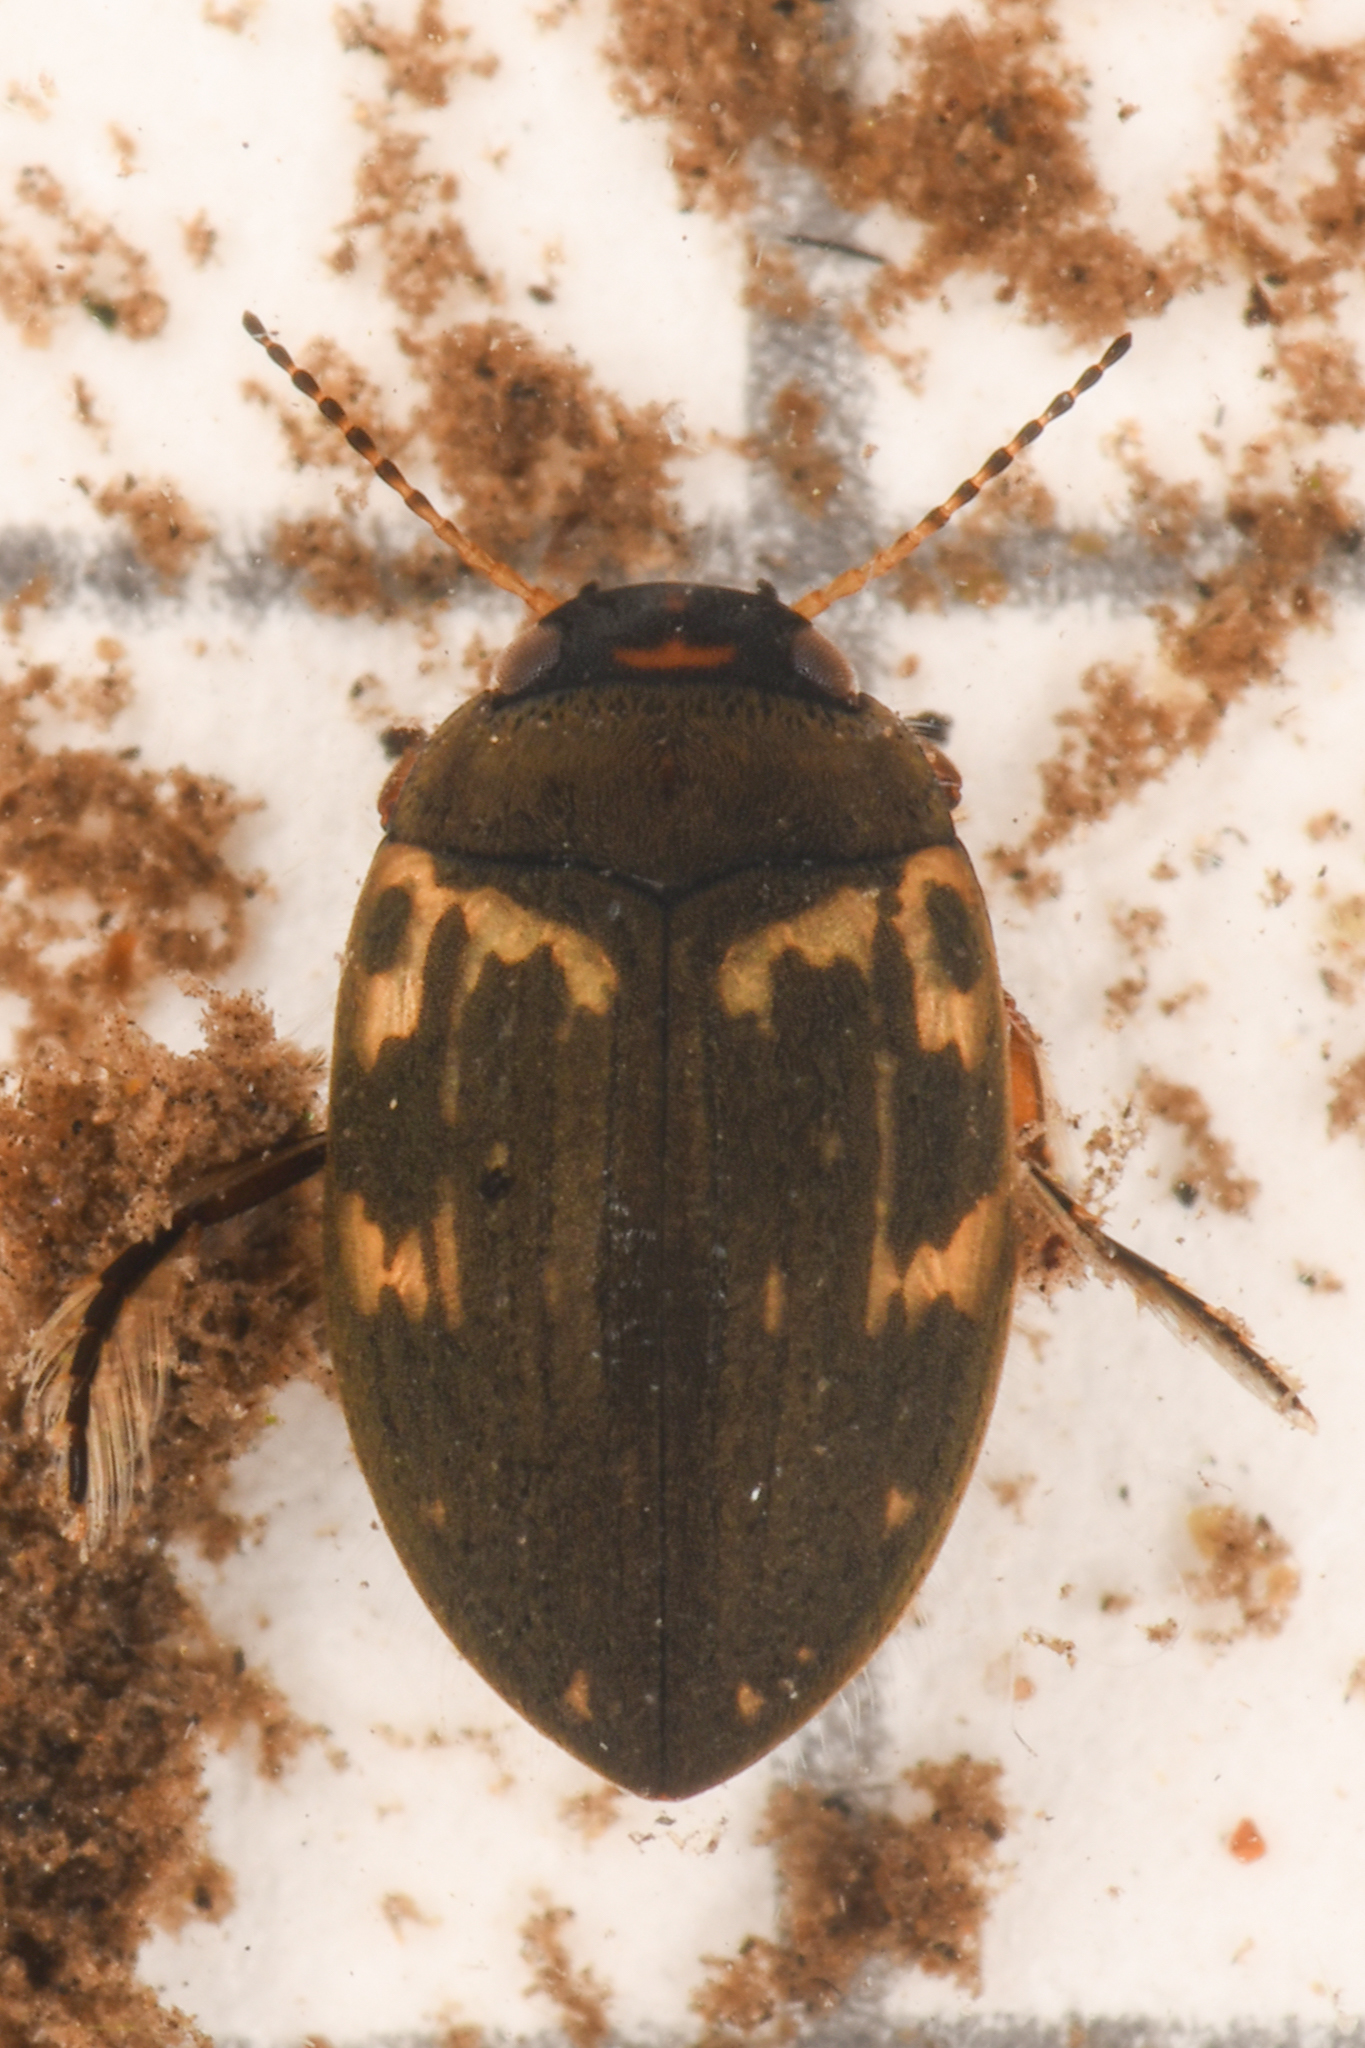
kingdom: Animalia
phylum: Arthropoda
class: Insecta
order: Coleoptera
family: Dytiscidae
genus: Leconectes
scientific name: Leconectes striatellus
